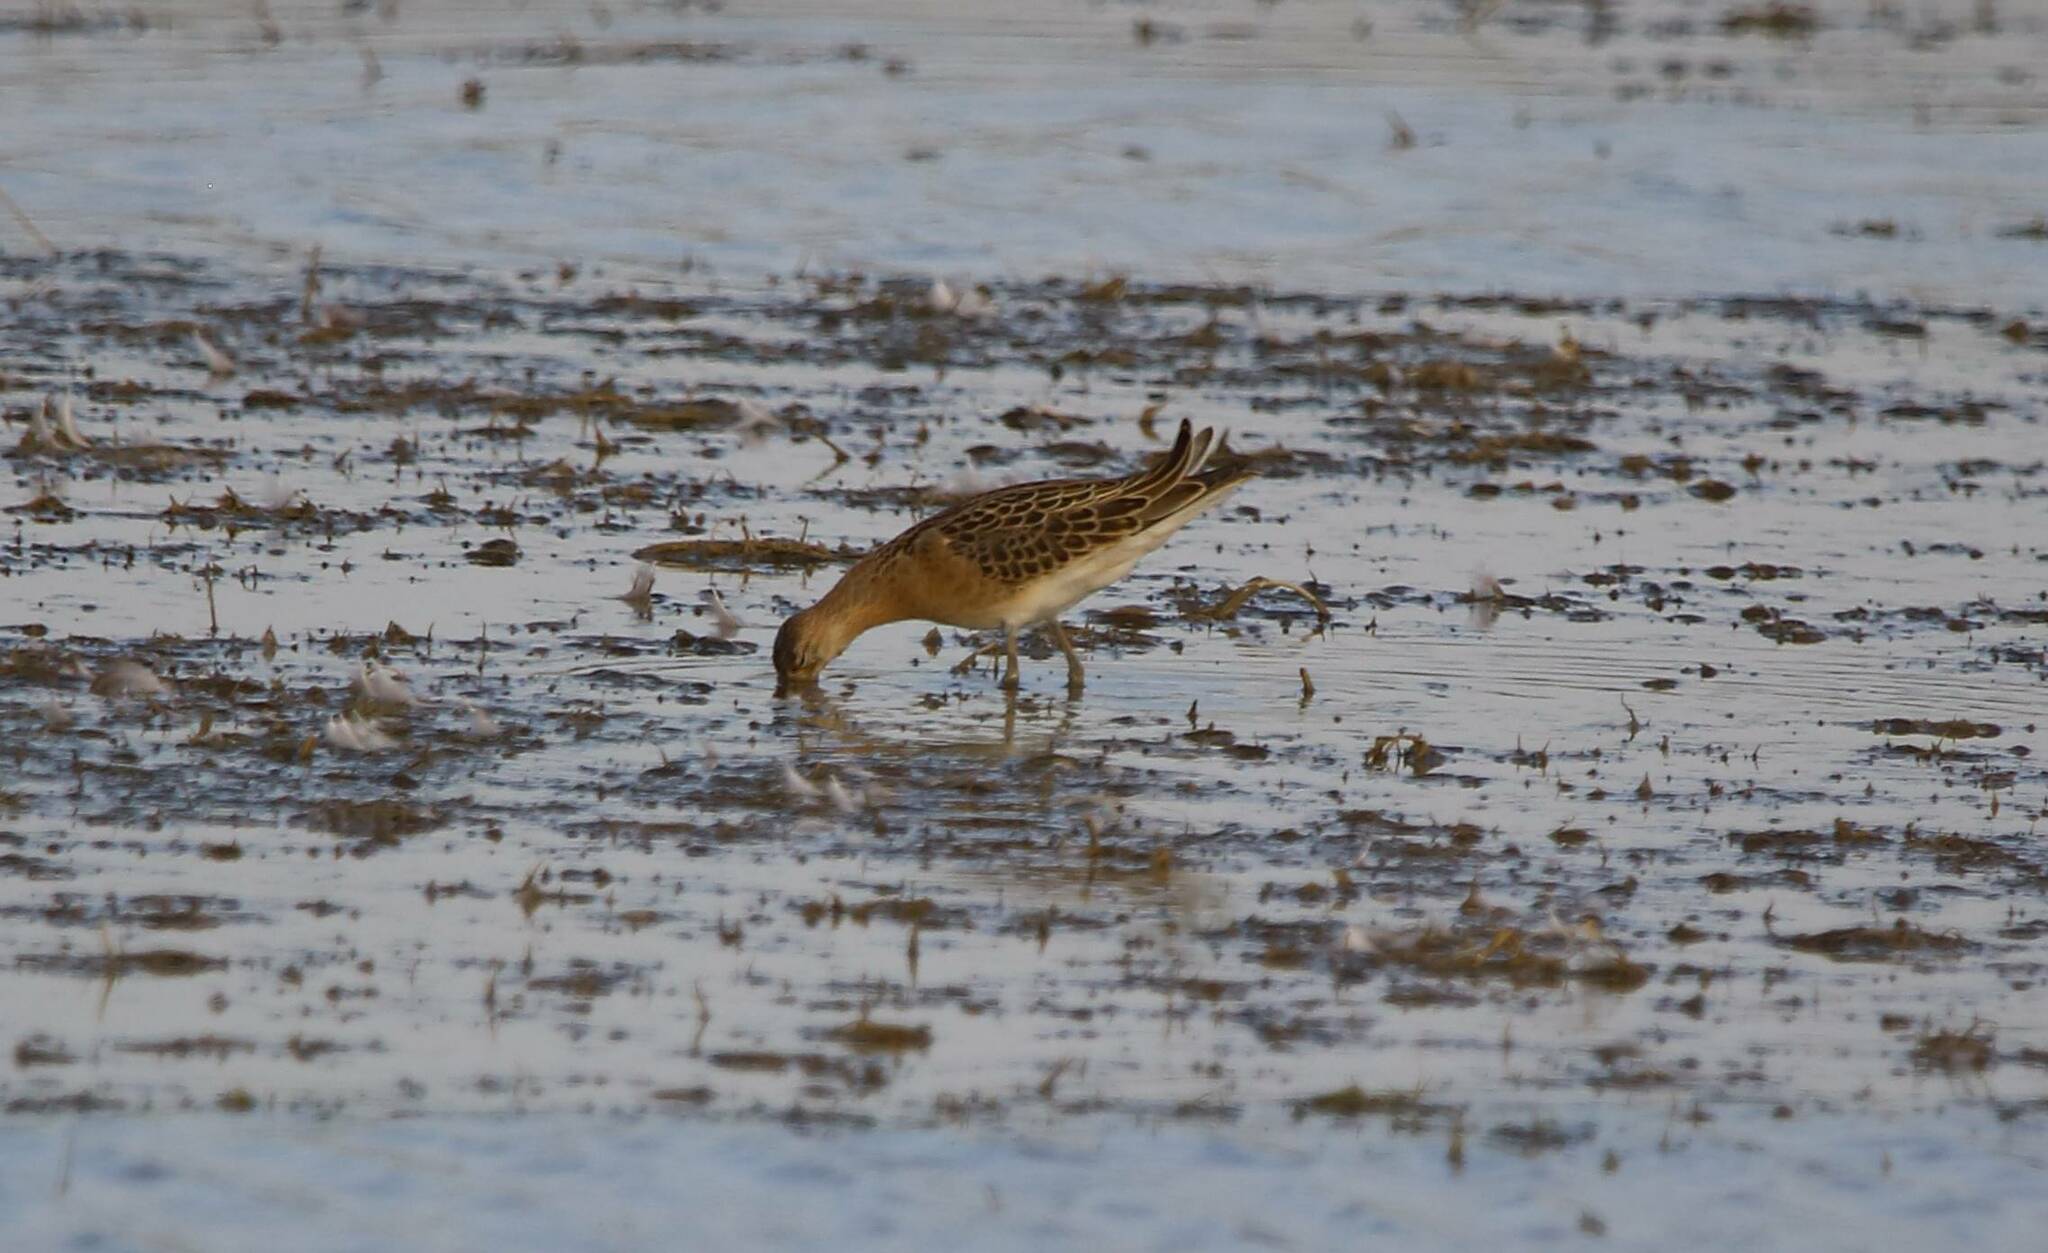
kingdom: Animalia
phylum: Chordata
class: Aves
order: Charadriiformes
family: Scolopacidae
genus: Calidris
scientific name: Calidris pugnax
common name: Ruff
